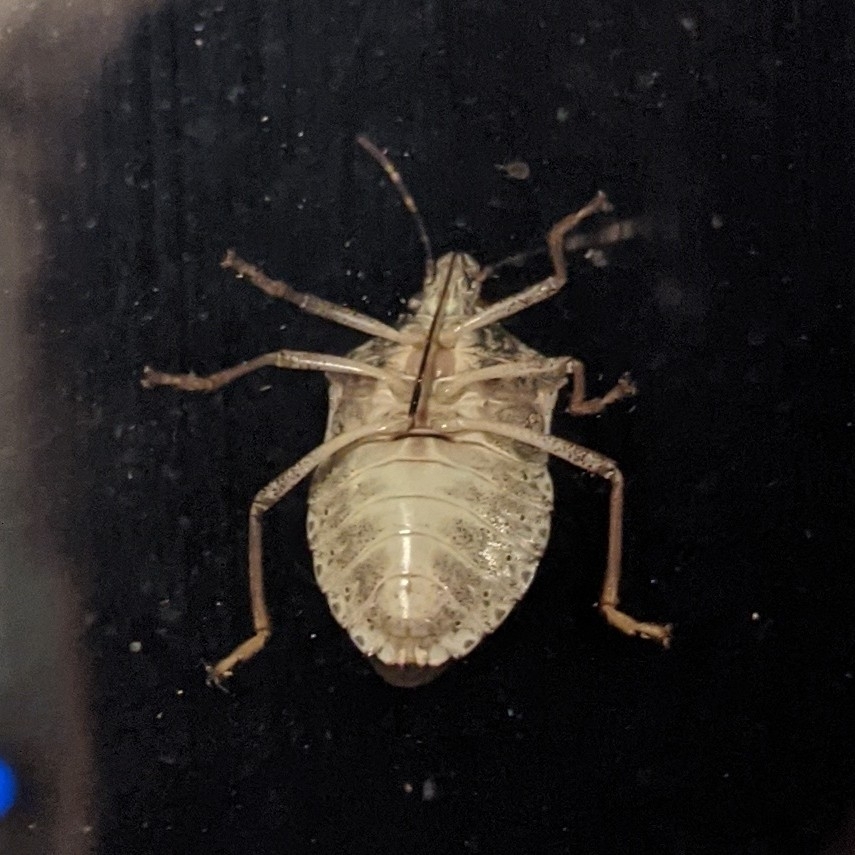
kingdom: Animalia
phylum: Arthropoda
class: Insecta
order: Hemiptera
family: Pentatomidae
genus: Halyomorpha
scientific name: Halyomorpha halys
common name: Brown marmorated stink bug
